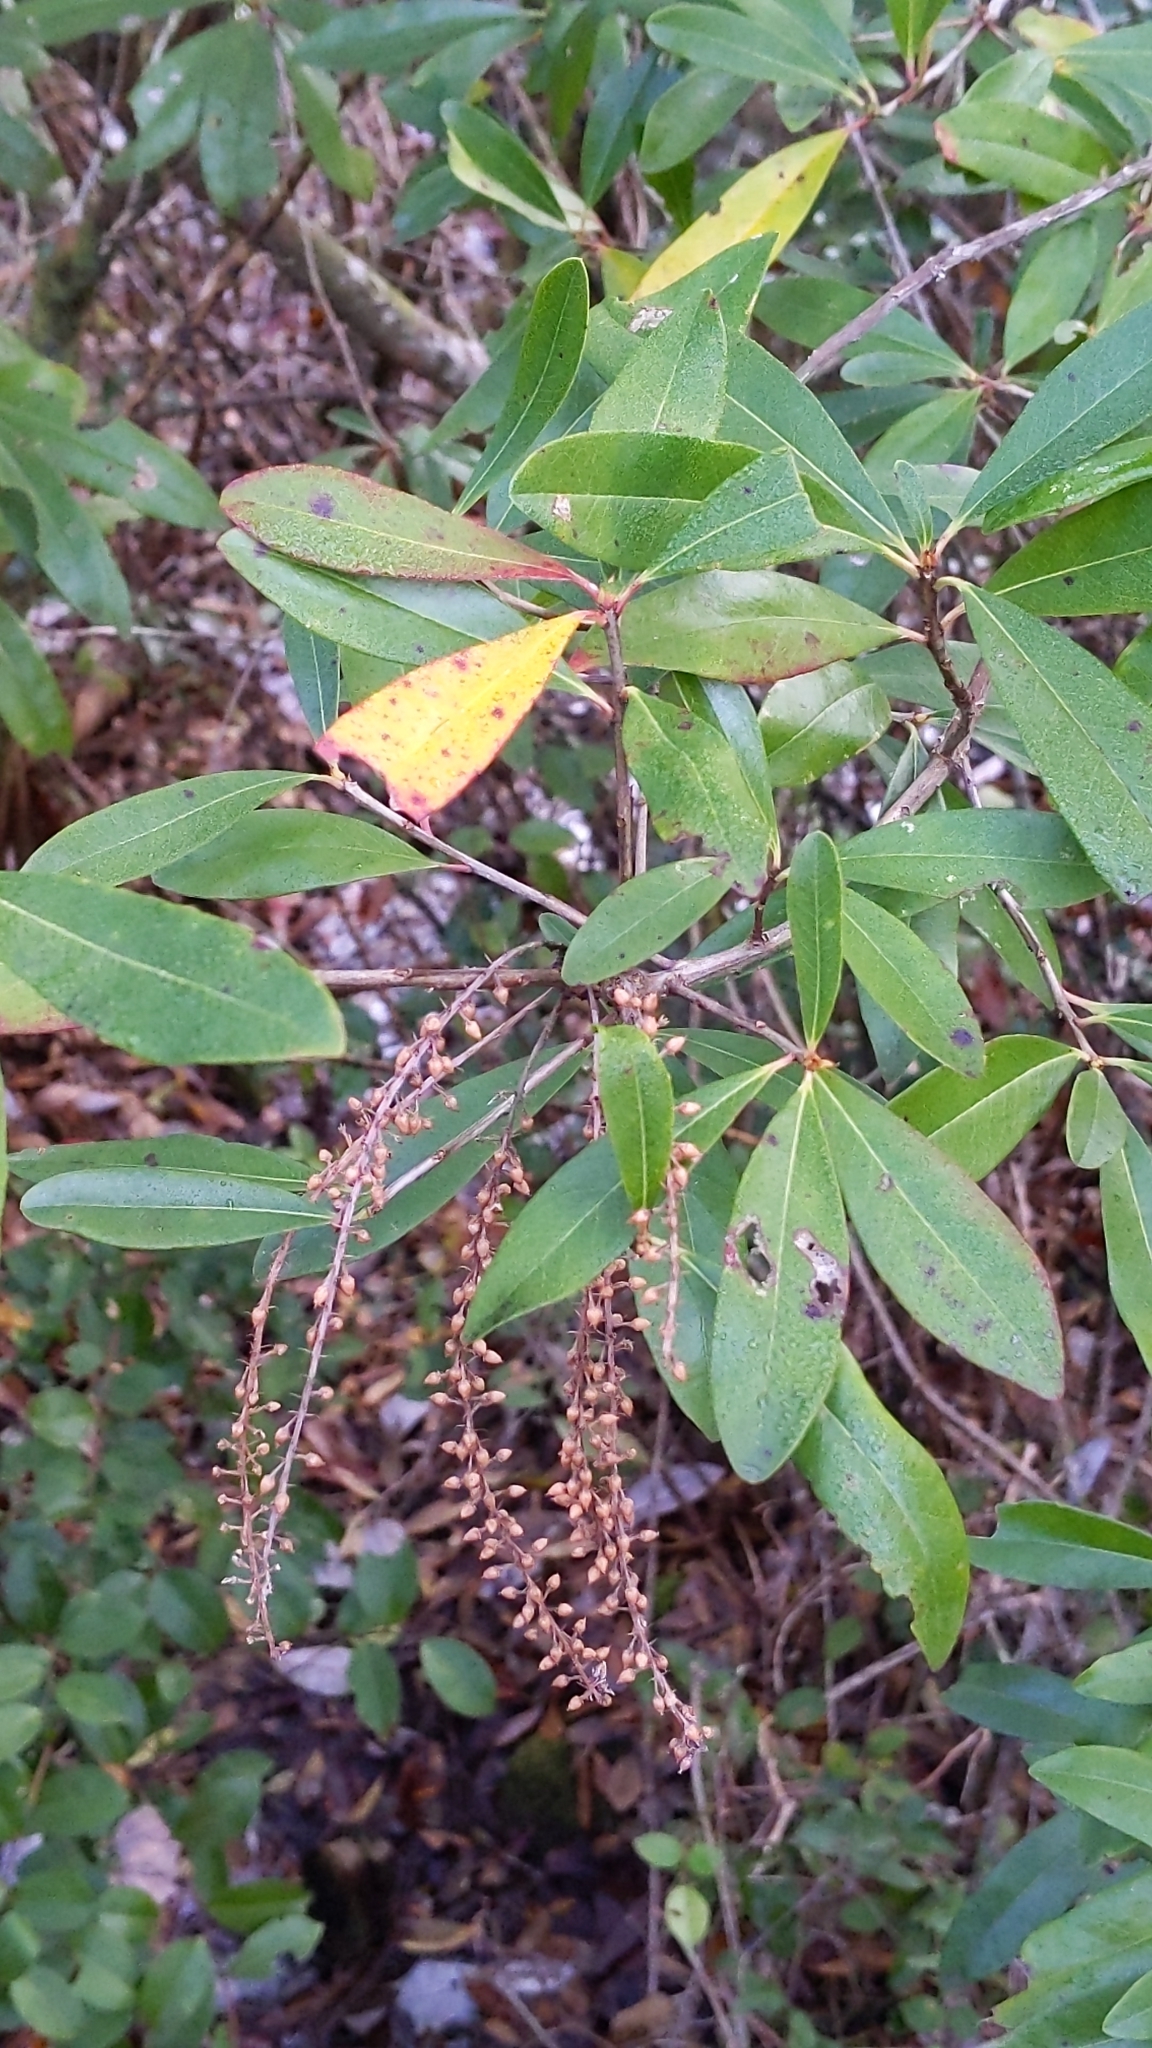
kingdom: Plantae
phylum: Tracheophyta
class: Magnoliopsida
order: Ericales
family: Cyrillaceae
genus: Cyrilla
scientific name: Cyrilla racemiflora
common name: Black titi
